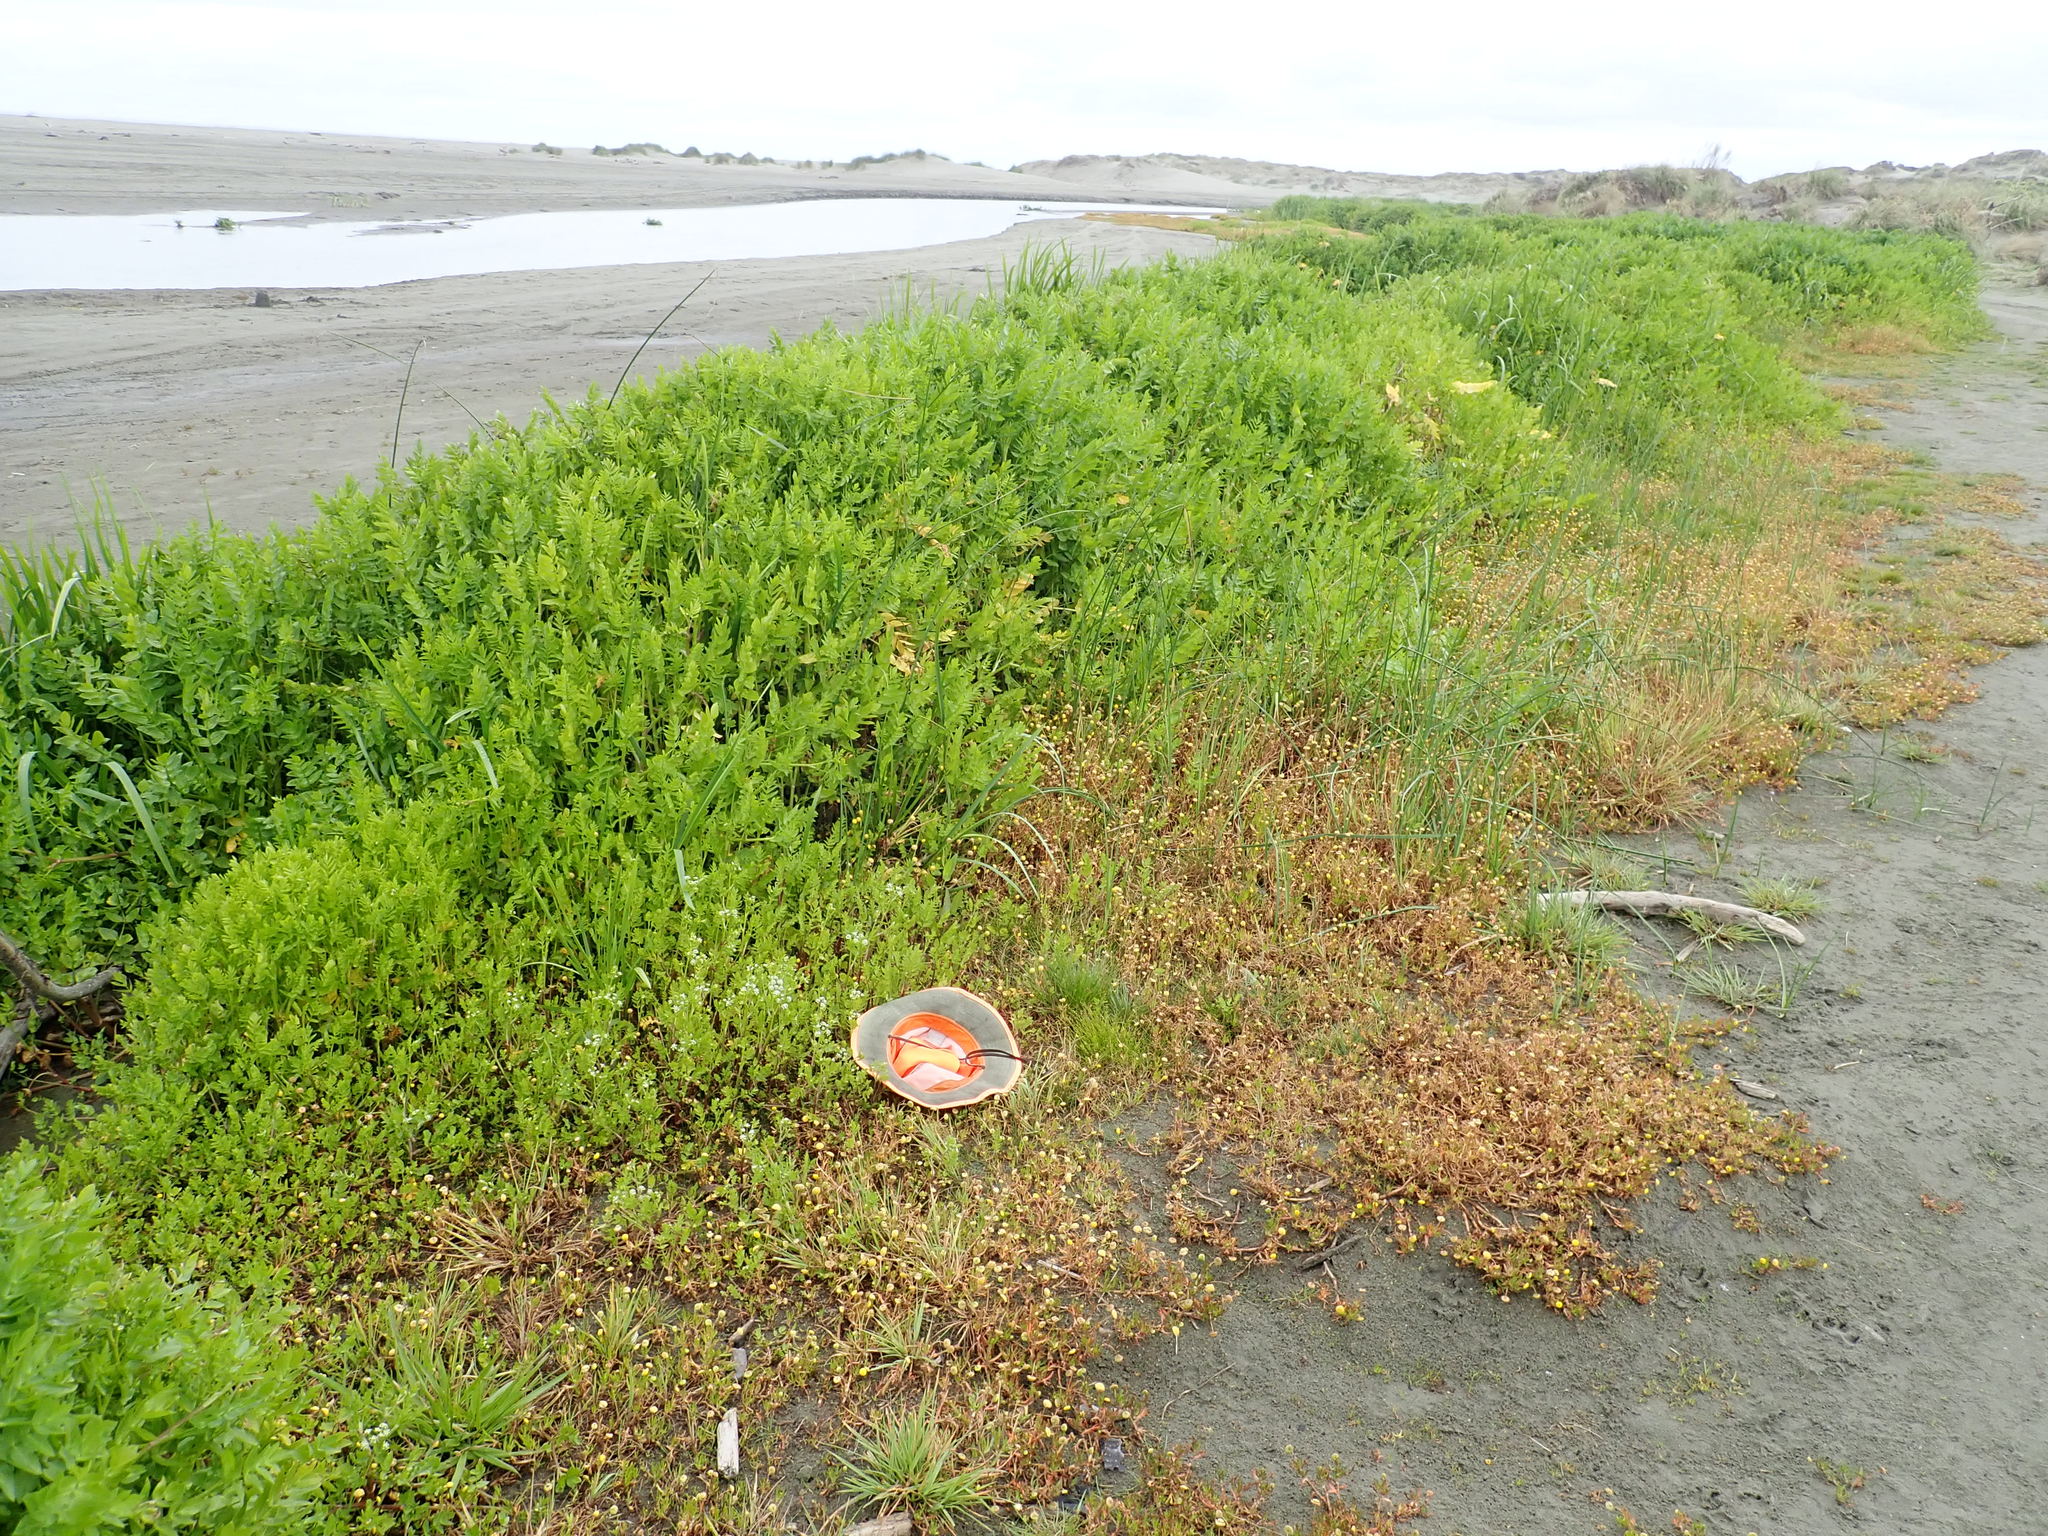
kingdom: Plantae
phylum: Tracheophyta
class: Magnoliopsida
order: Asterales
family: Asteraceae
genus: Cotula
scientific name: Cotula coronopifolia
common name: Buttonweed
